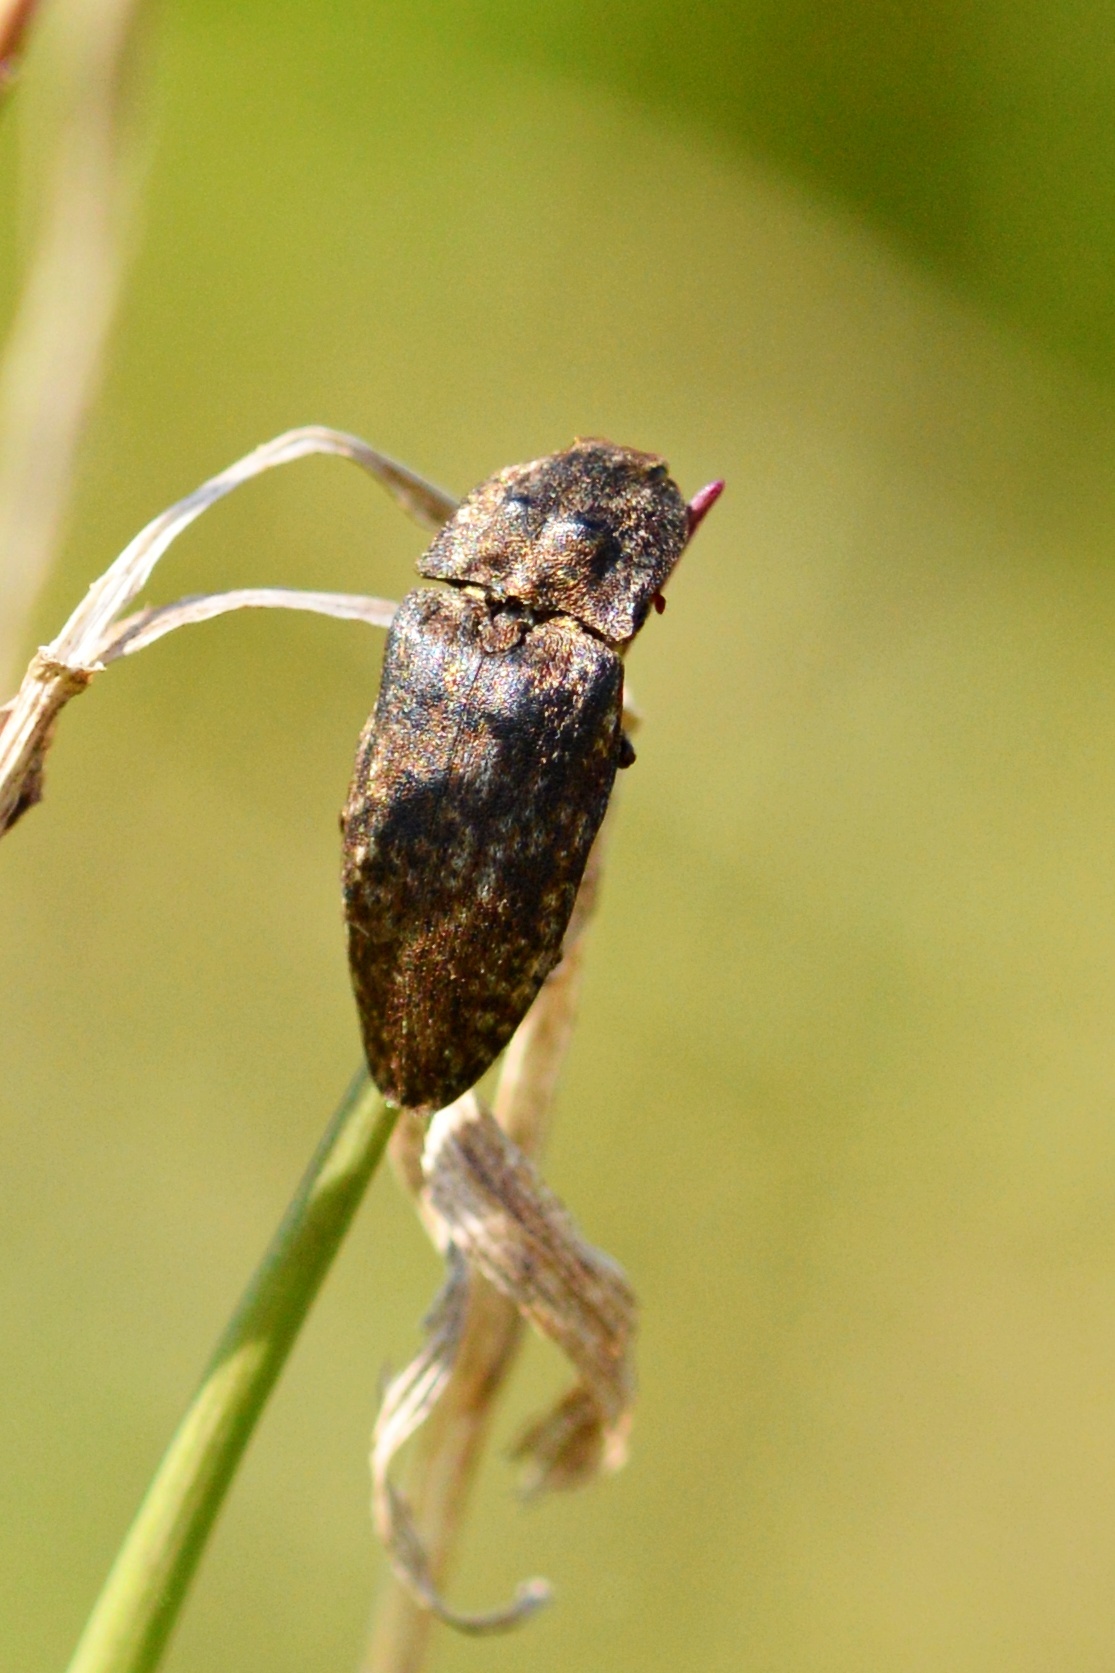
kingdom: Animalia
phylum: Arthropoda
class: Insecta
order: Coleoptera
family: Elateridae
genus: Agrypnus
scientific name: Agrypnus murinus
